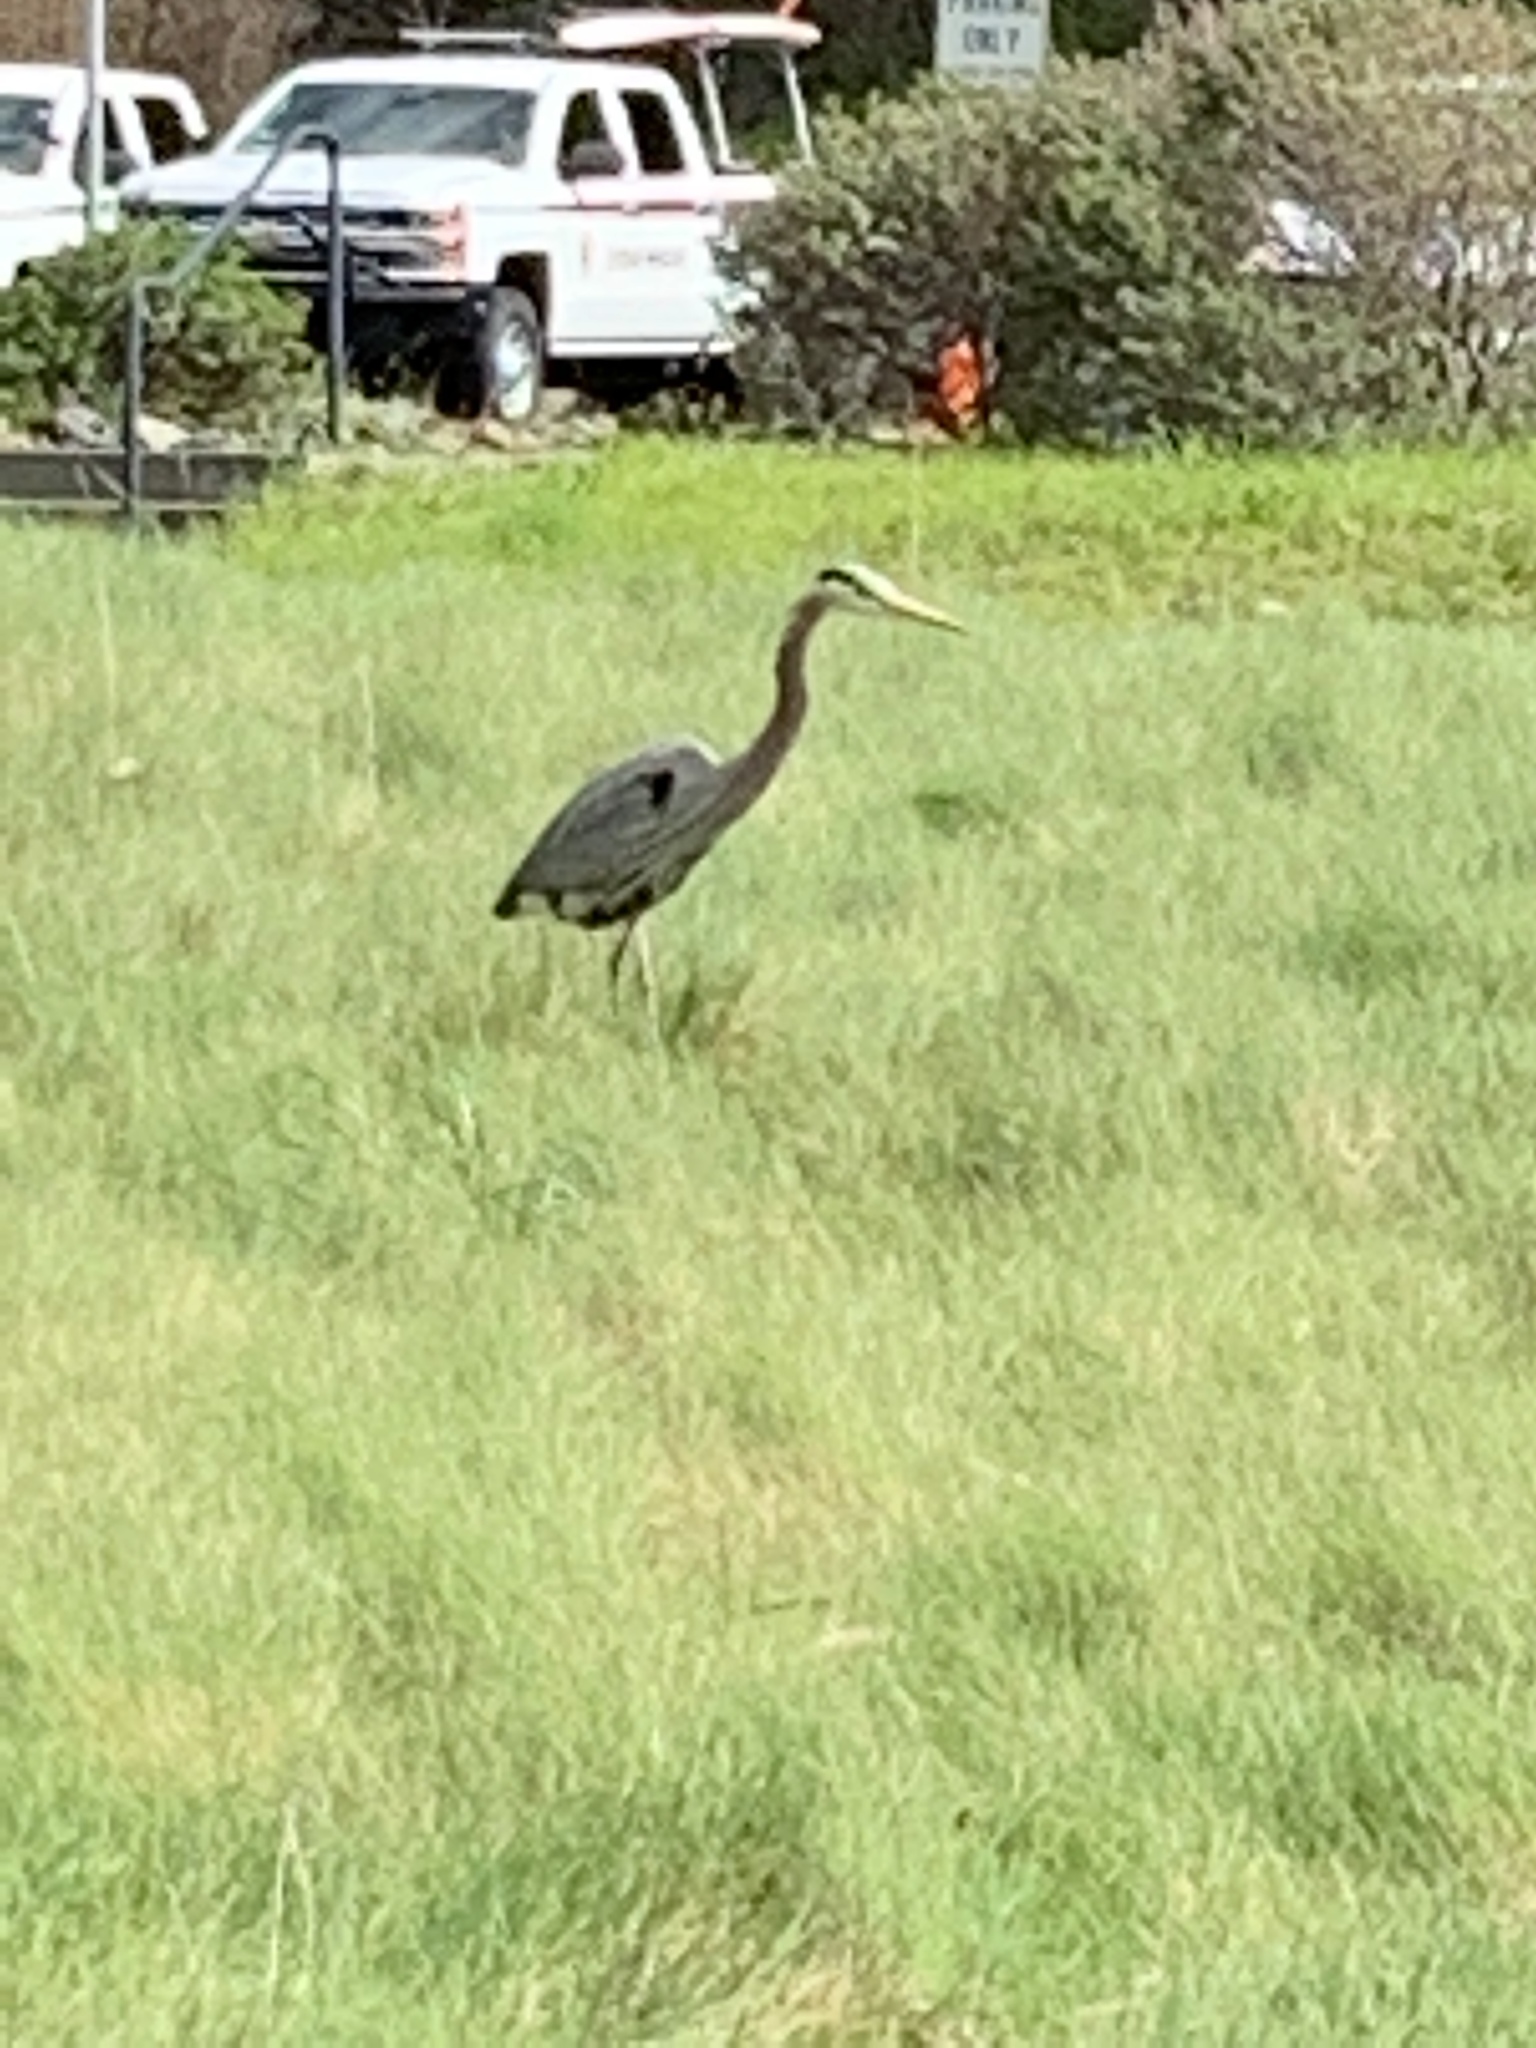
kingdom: Animalia
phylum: Chordata
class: Aves
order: Pelecaniformes
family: Ardeidae
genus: Ardea
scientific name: Ardea herodias
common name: Great blue heron
